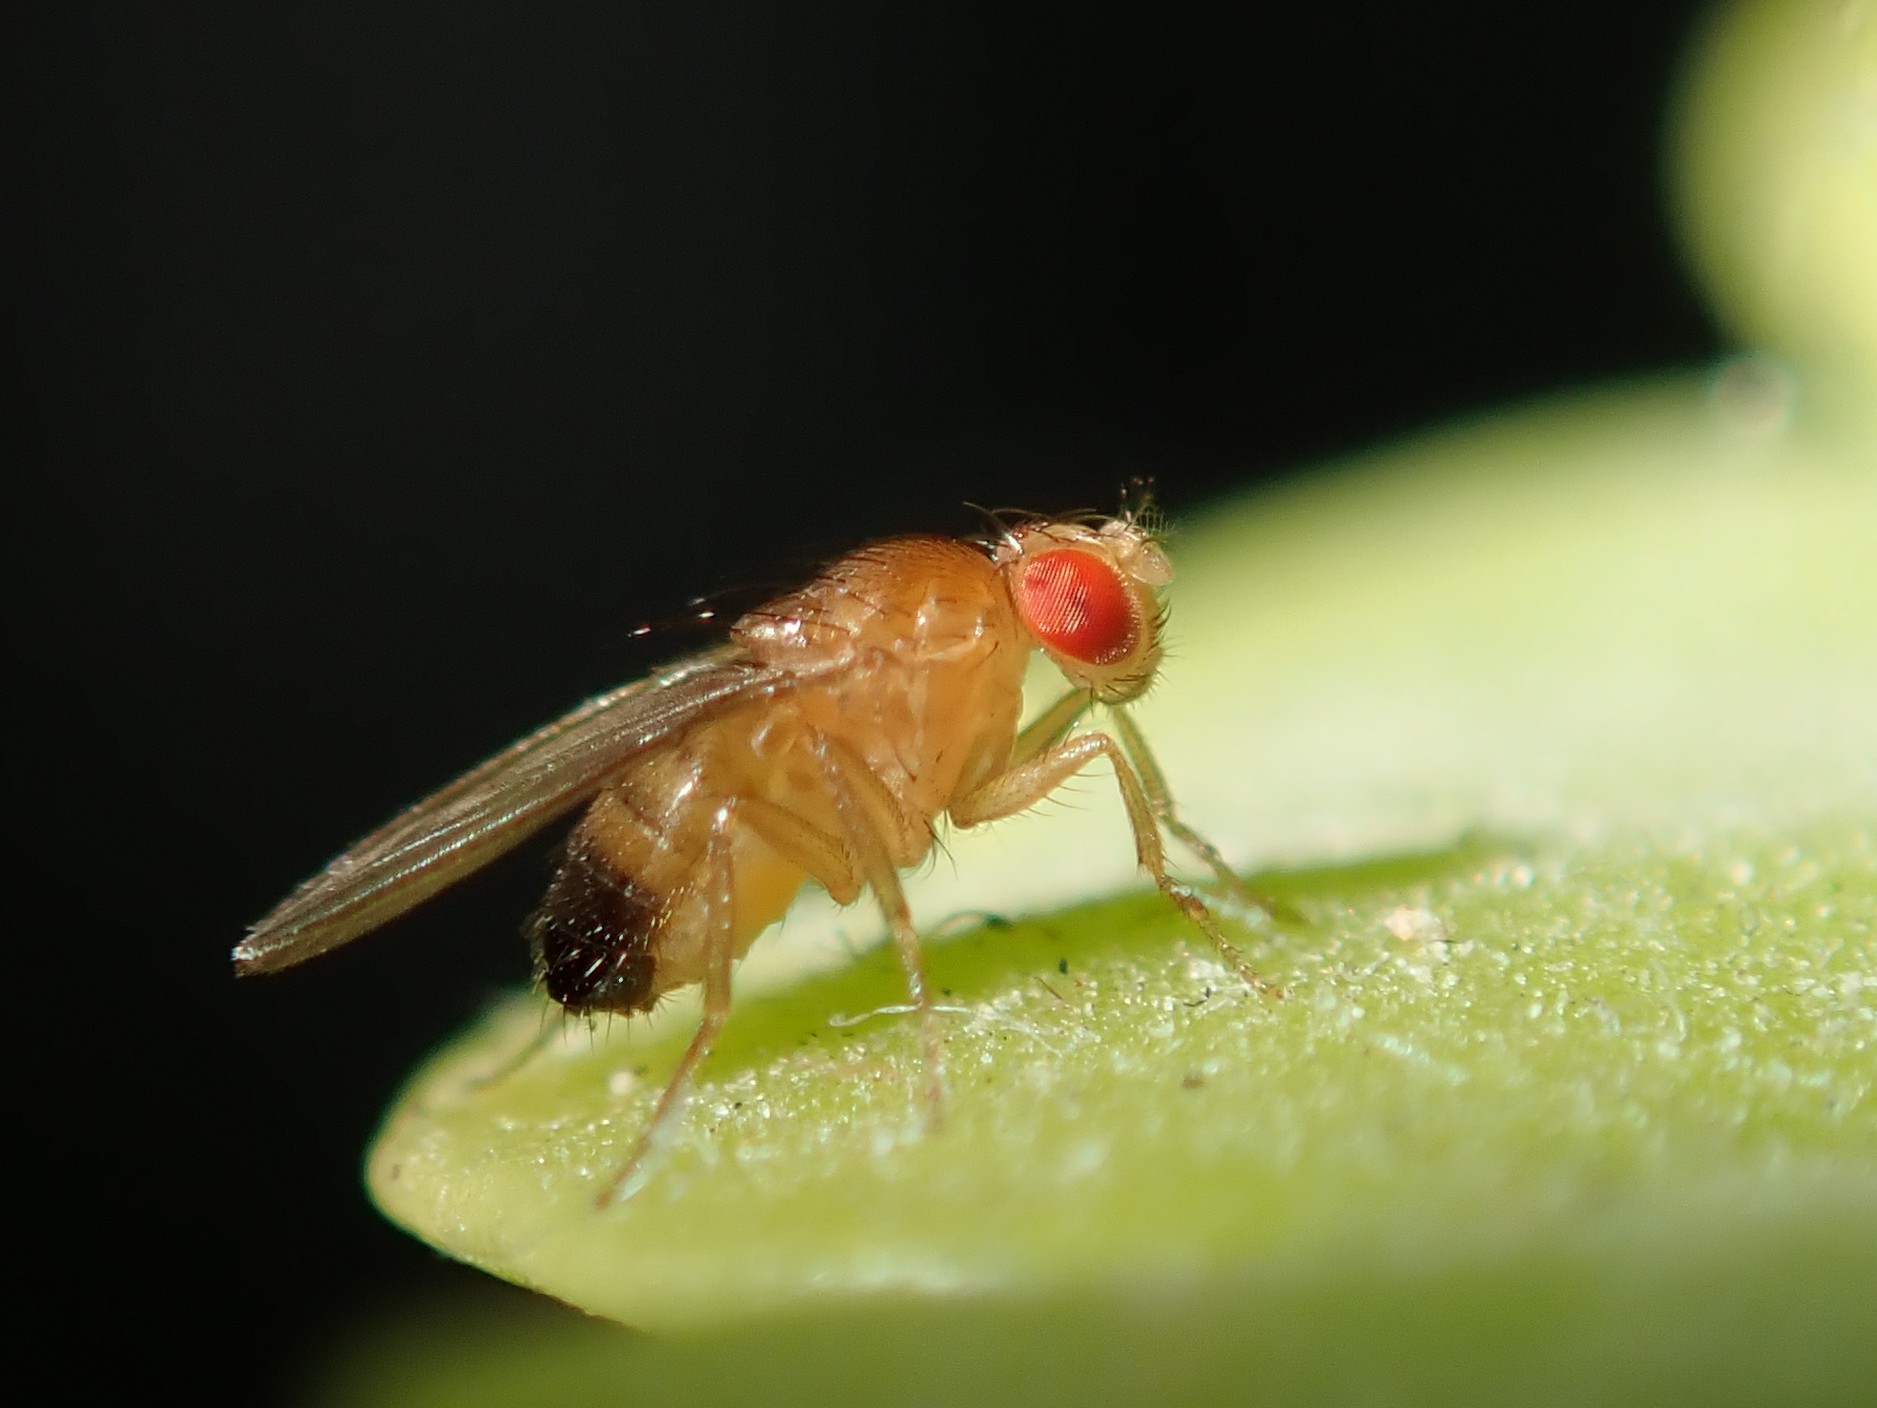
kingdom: Animalia
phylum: Arthropoda
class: Insecta
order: Diptera
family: Drosophilidae
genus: Drosophila
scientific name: Drosophila melanogaster
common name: Pomace fly
